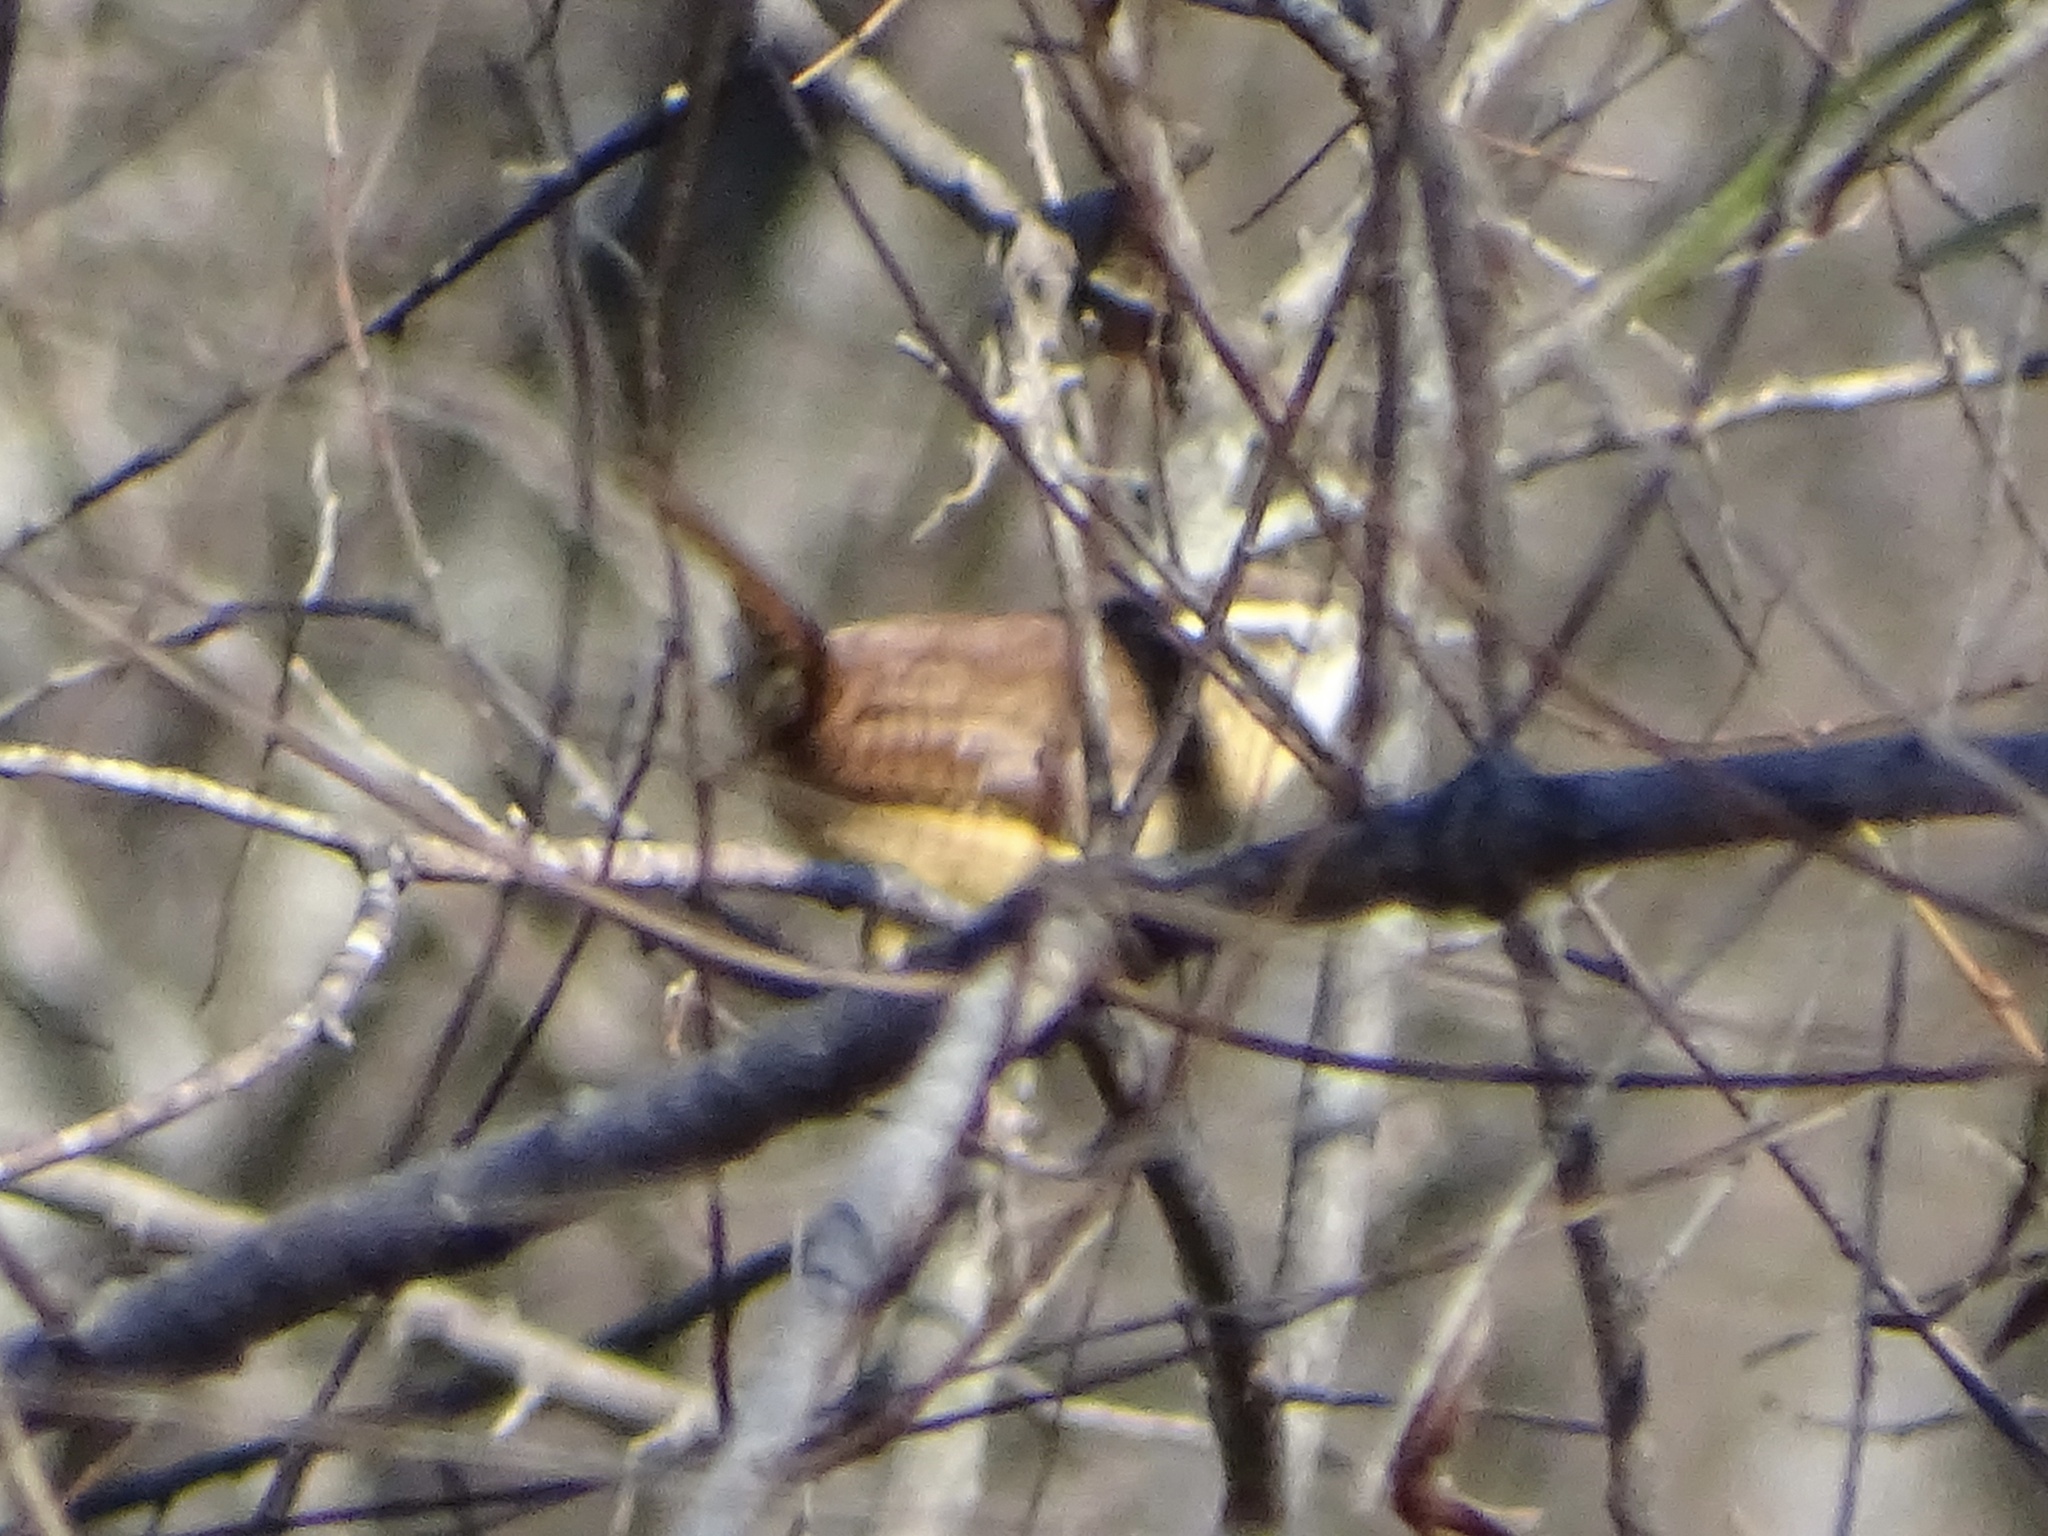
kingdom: Animalia
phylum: Chordata
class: Aves
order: Passeriformes
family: Troglodytidae
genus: Thryothorus
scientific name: Thryothorus ludovicianus
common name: Carolina wren
